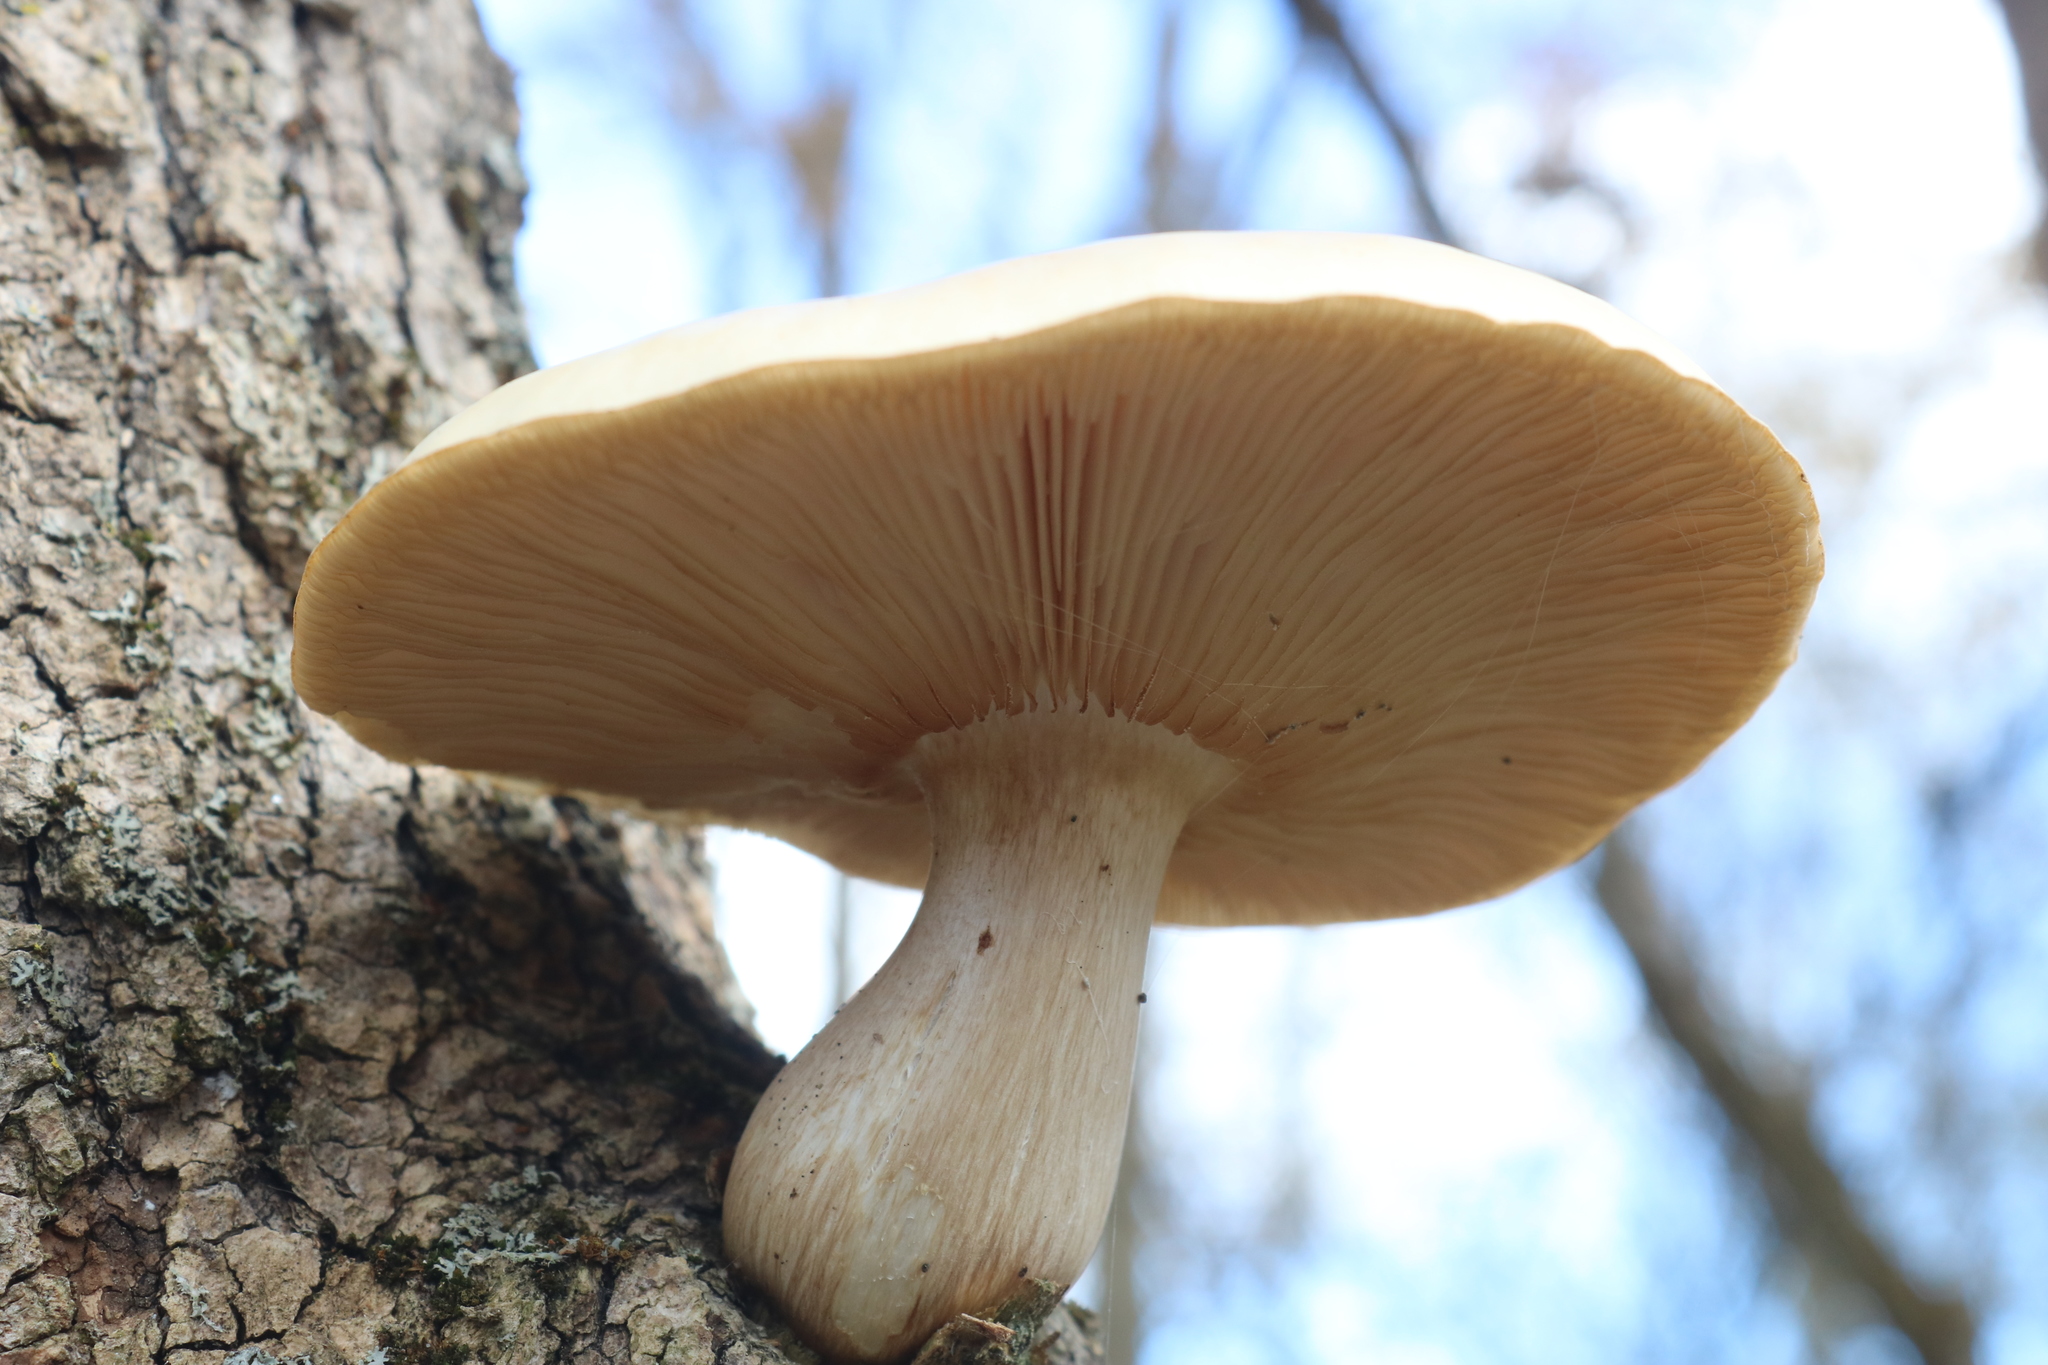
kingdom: Fungi
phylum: Basidiomycota
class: Agaricomycetes
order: Agaricales
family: Lyophyllaceae
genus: Hypsizygus
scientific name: Hypsizygus ulmarius
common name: Elm leech
